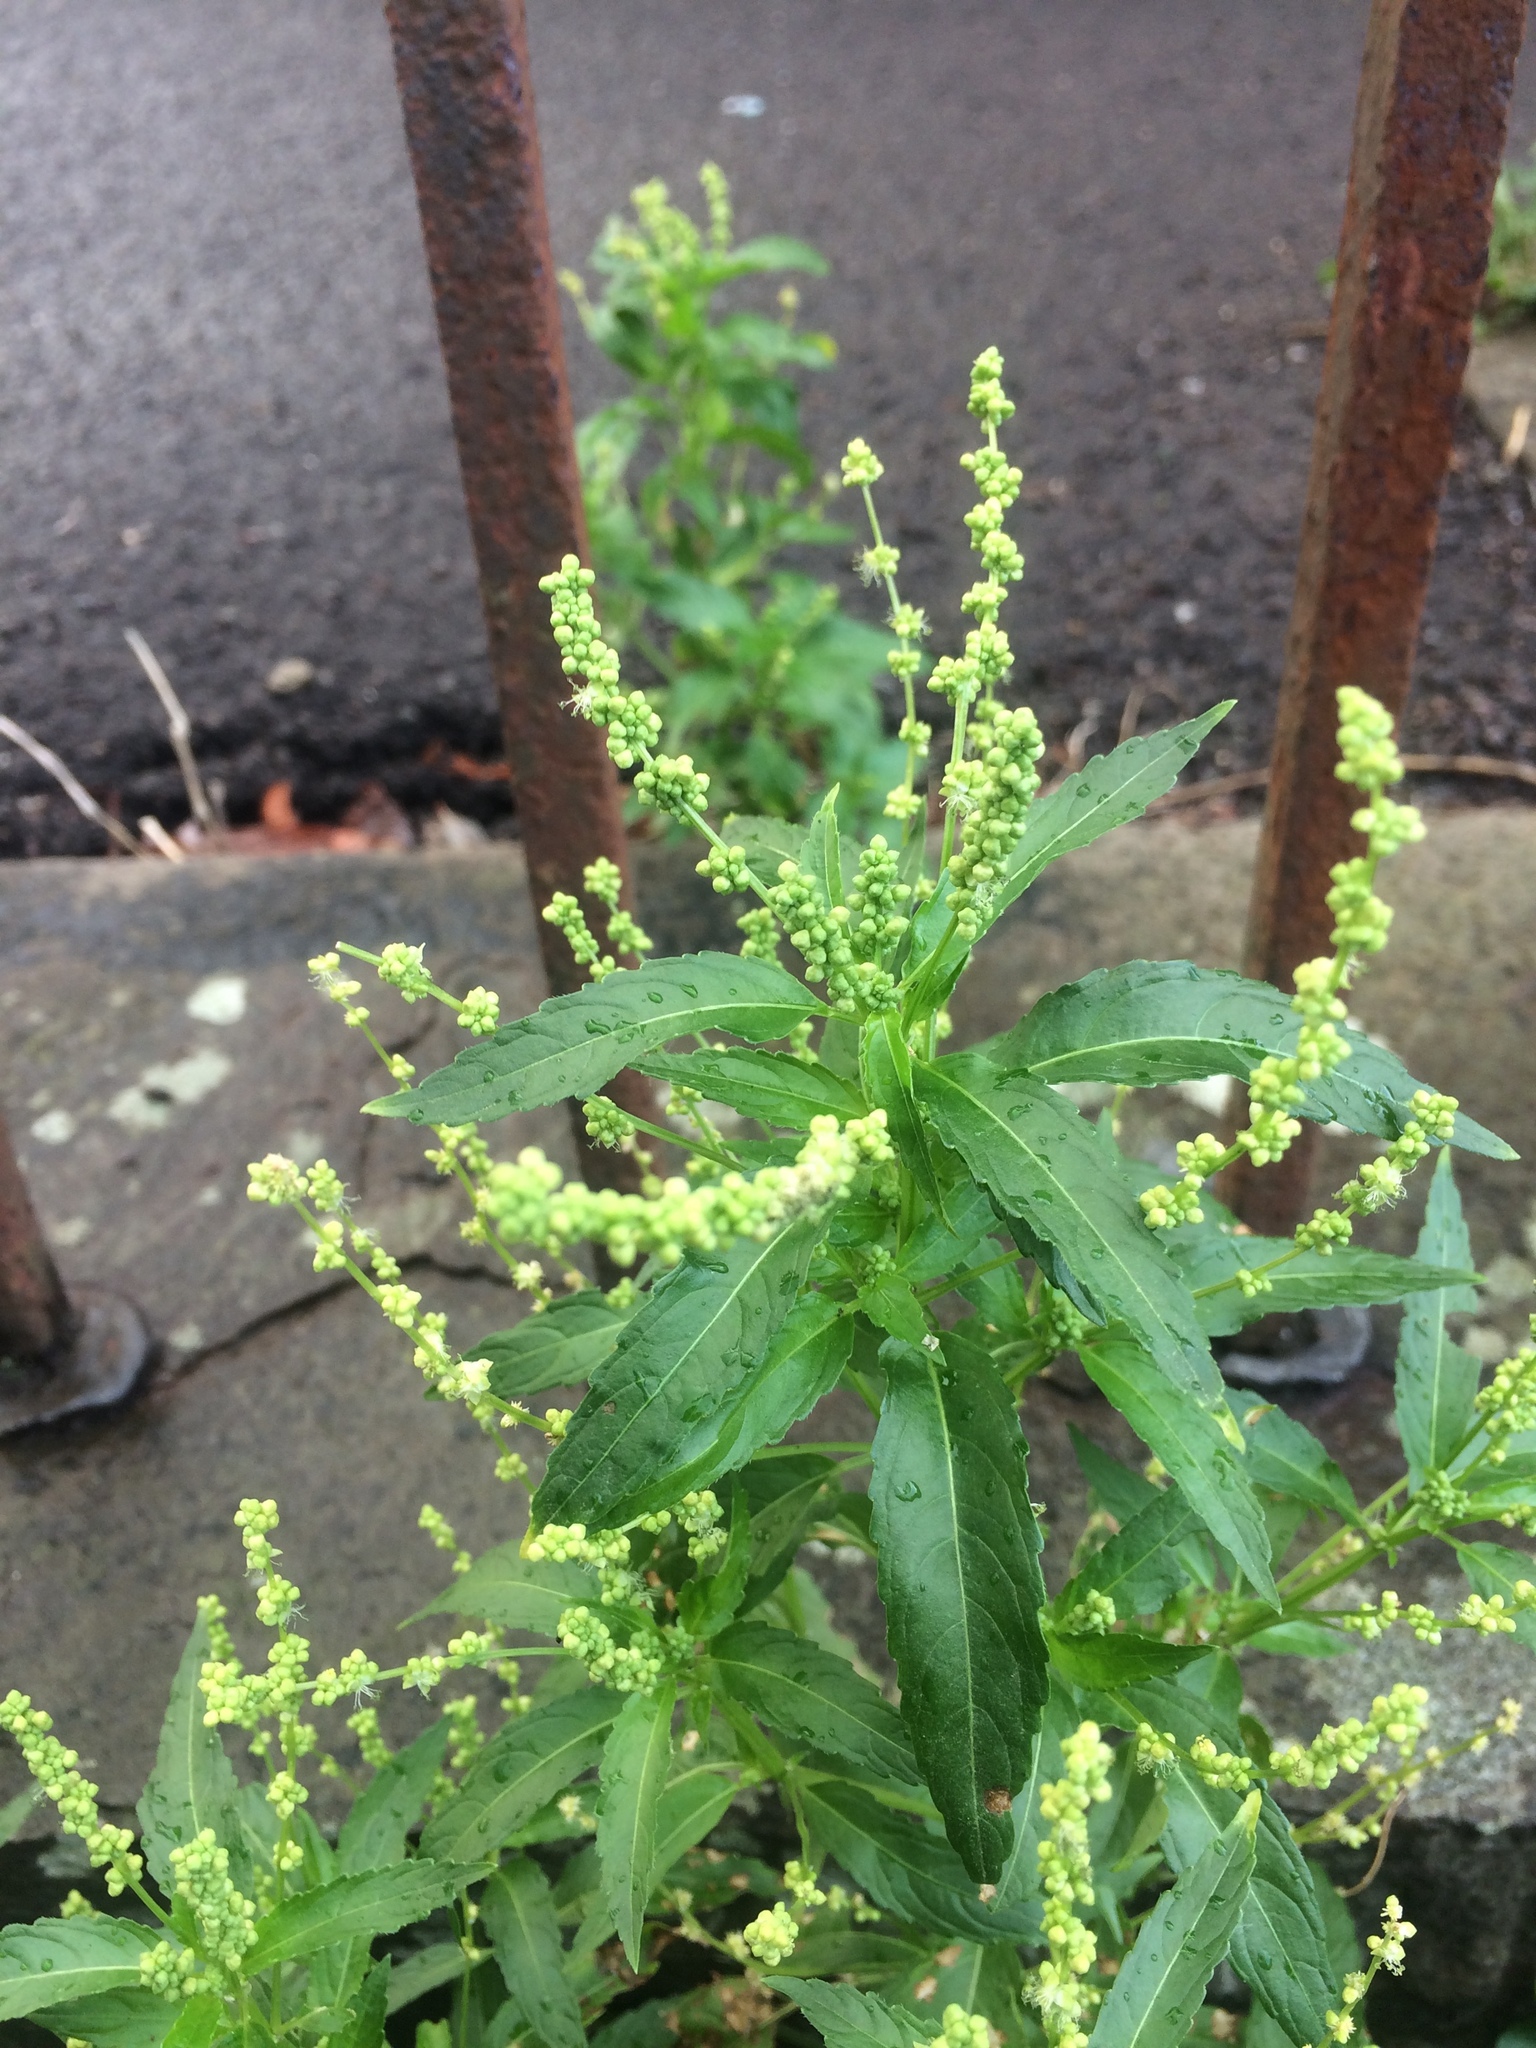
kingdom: Plantae
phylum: Tracheophyta
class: Magnoliopsida
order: Malpighiales
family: Euphorbiaceae
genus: Mercurialis
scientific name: Mercurialis annua
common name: Annual mercury
